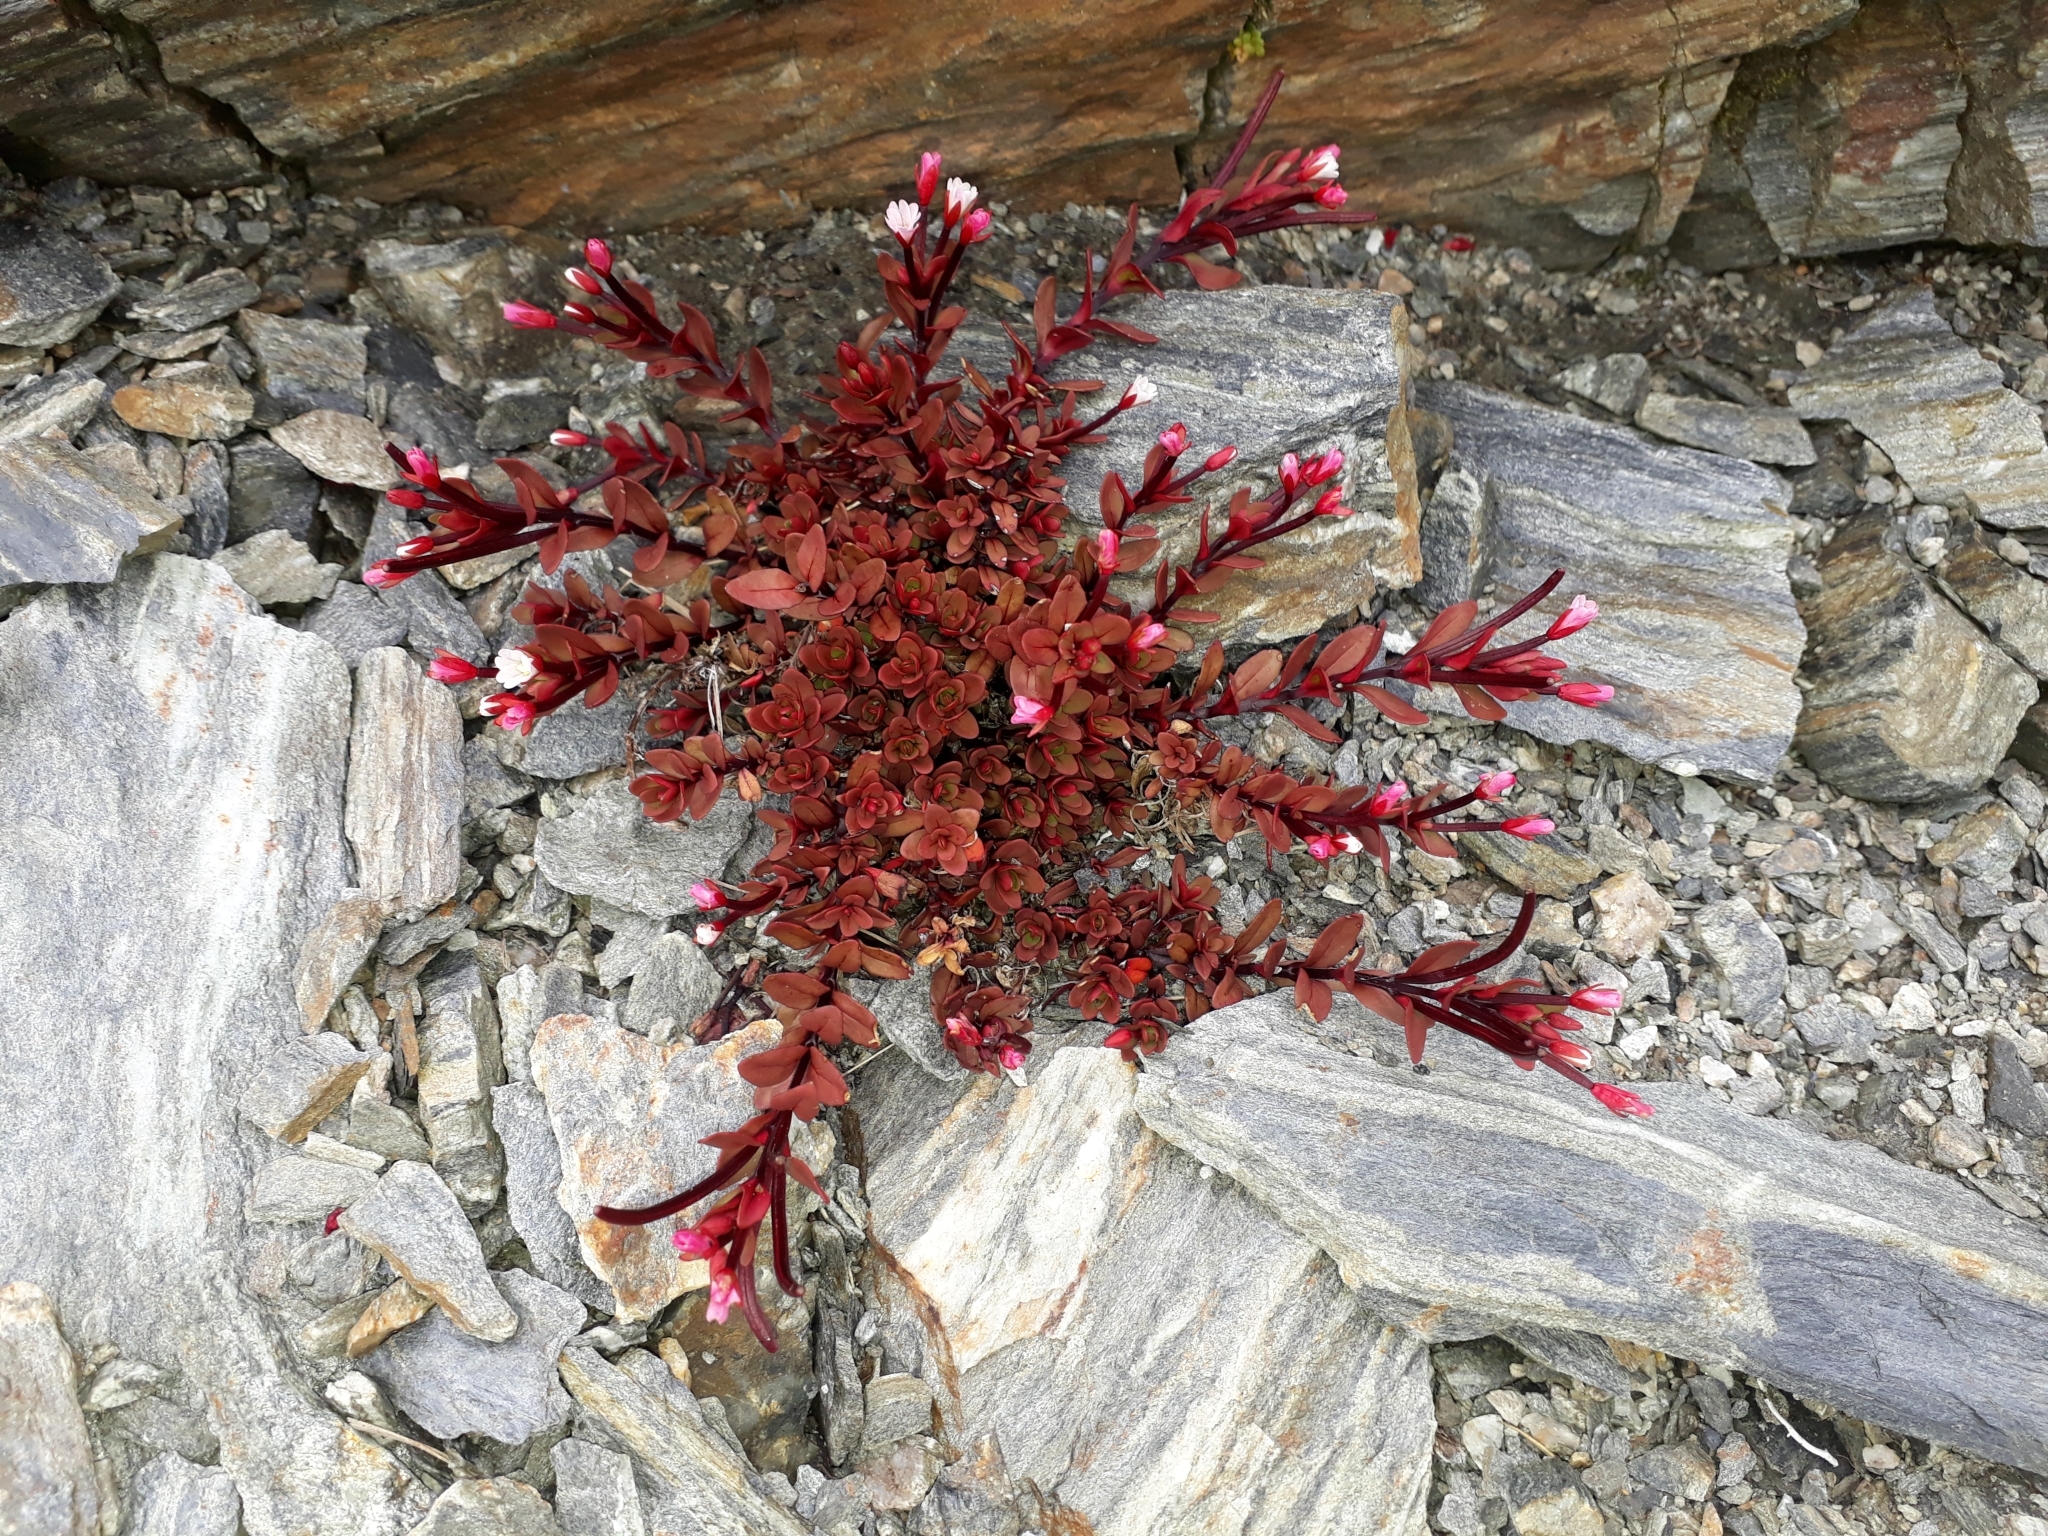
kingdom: Plantae
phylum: Tracheophyta
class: Magnoliopsida
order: Myrtales
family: Onagraceae
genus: Epilobium
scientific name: Epilobium porphyrium
